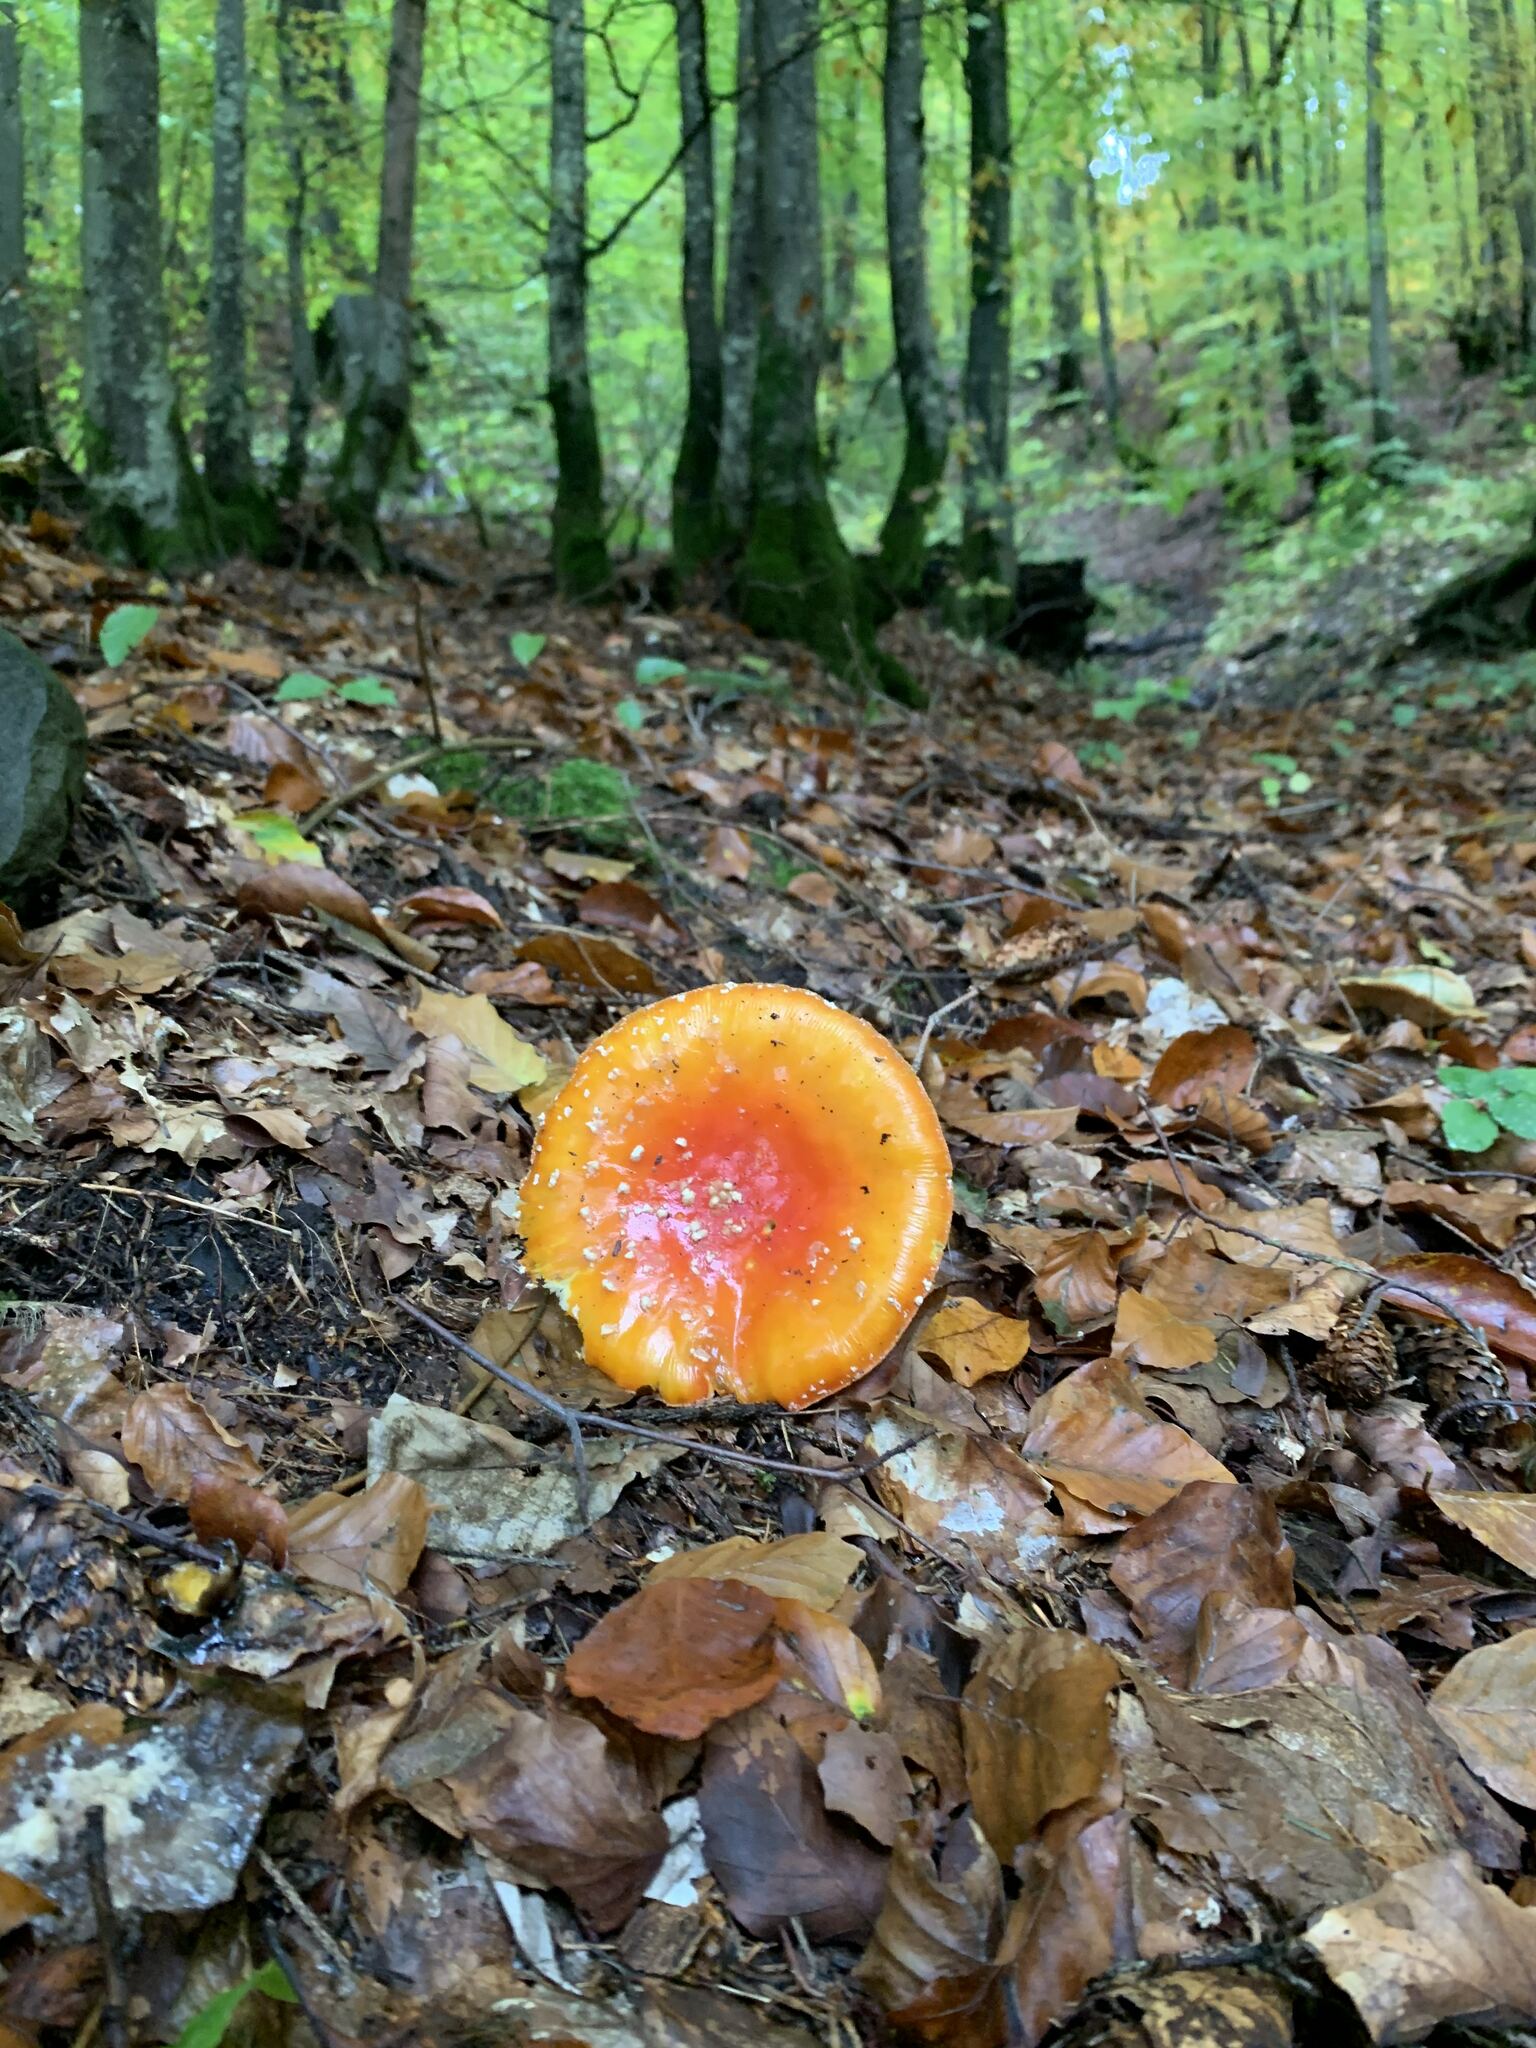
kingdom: Fungi
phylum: Basidiomycota
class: Agaricomycetes
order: Agaricales
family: Amanitaceae
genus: Amanita
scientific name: Amanita muscaria
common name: Fly agaric
